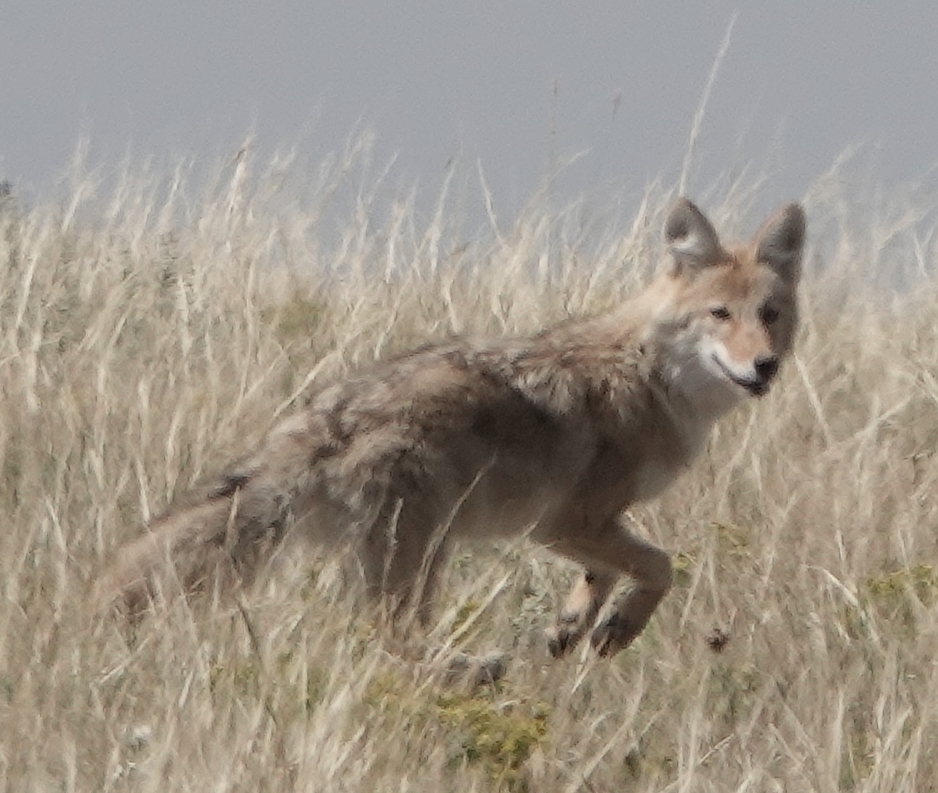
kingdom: Animalia
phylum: Chordata
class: Mammalia
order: Carnivora
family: Canidae
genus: Canis
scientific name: Canis latrans
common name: Coyote
